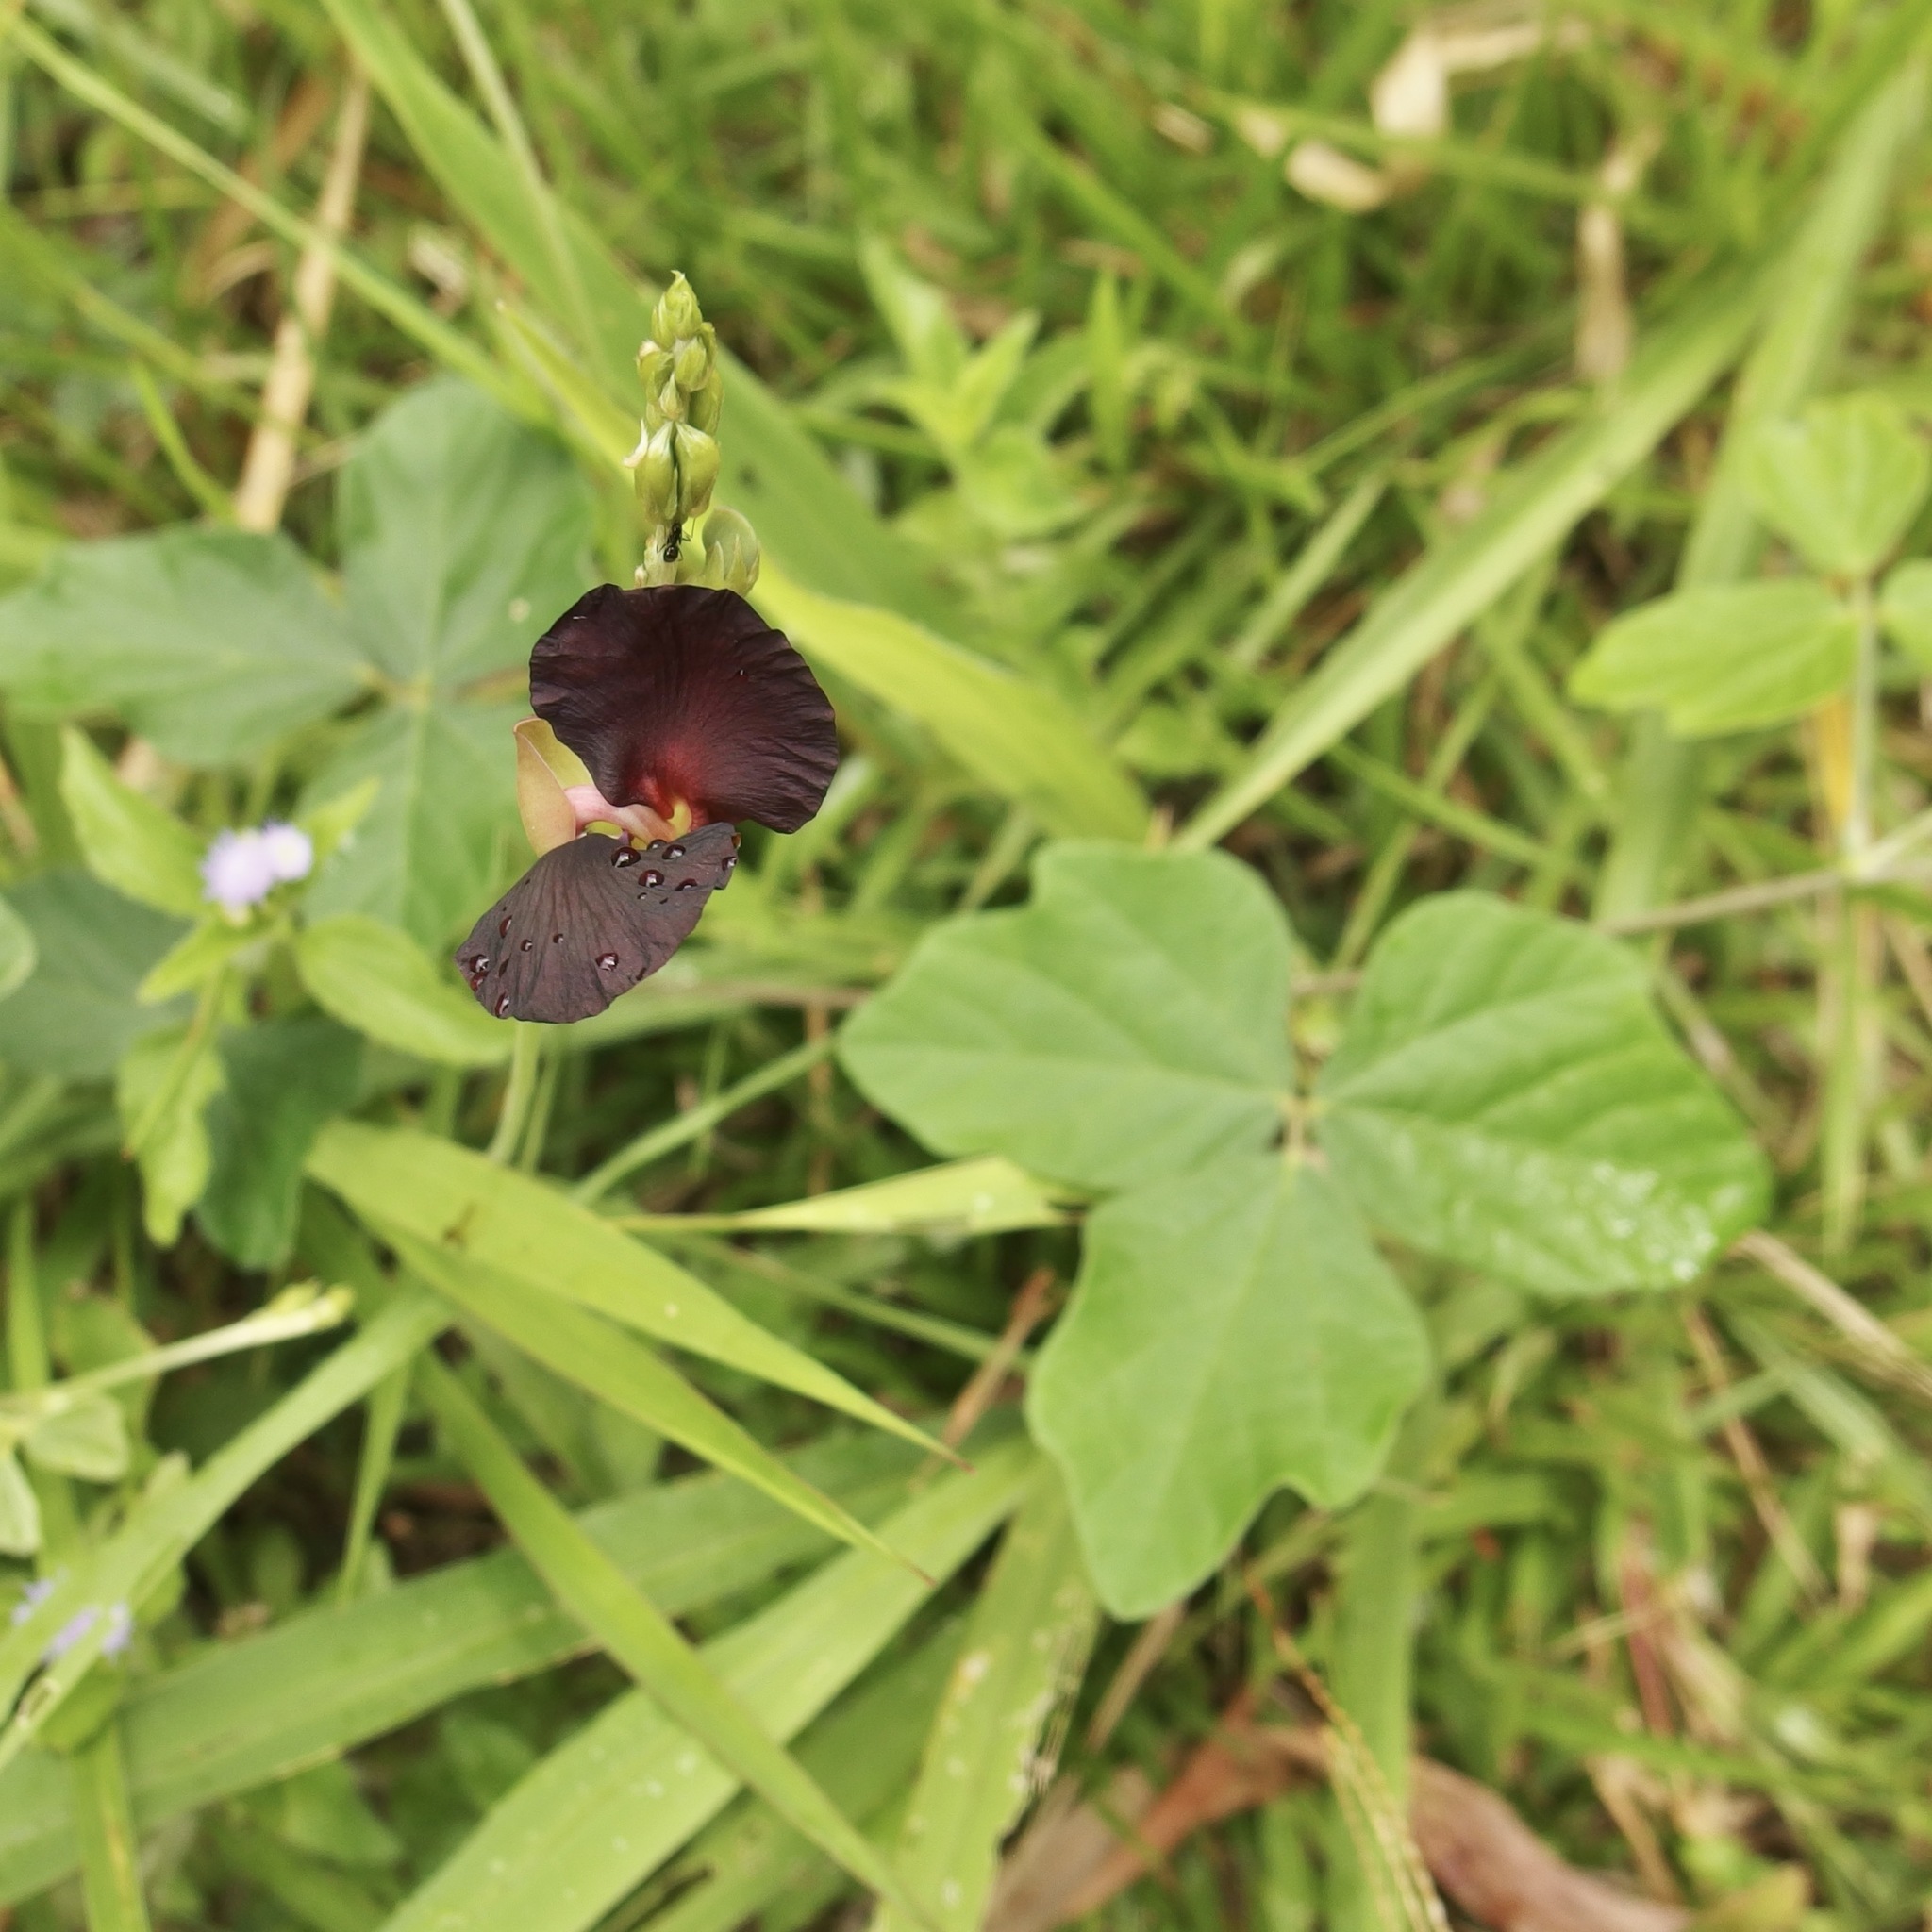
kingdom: Plantae
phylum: Tracheophyta
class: Magnoliopsida
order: Fabales
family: Fabaceae
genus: Macroptilium
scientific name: Macroptilium atropurpureum
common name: Purple bushbean
